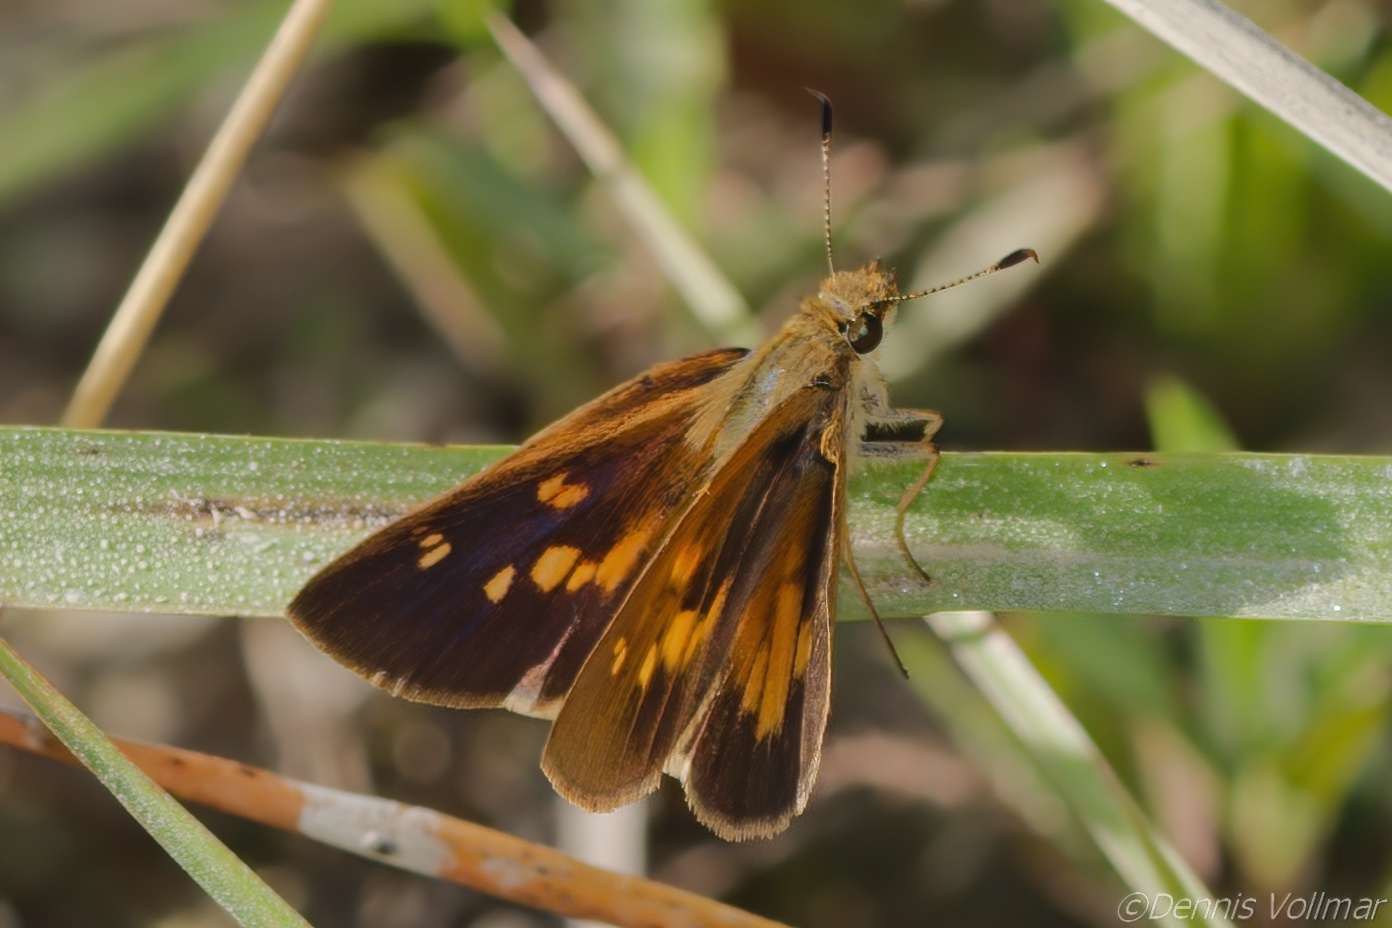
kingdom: Animalia
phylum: Arthropoda
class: Insecta
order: Lepidoptera
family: Hesperiidae
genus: Poanes
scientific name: Poanes yehl
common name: Yehl skipper
